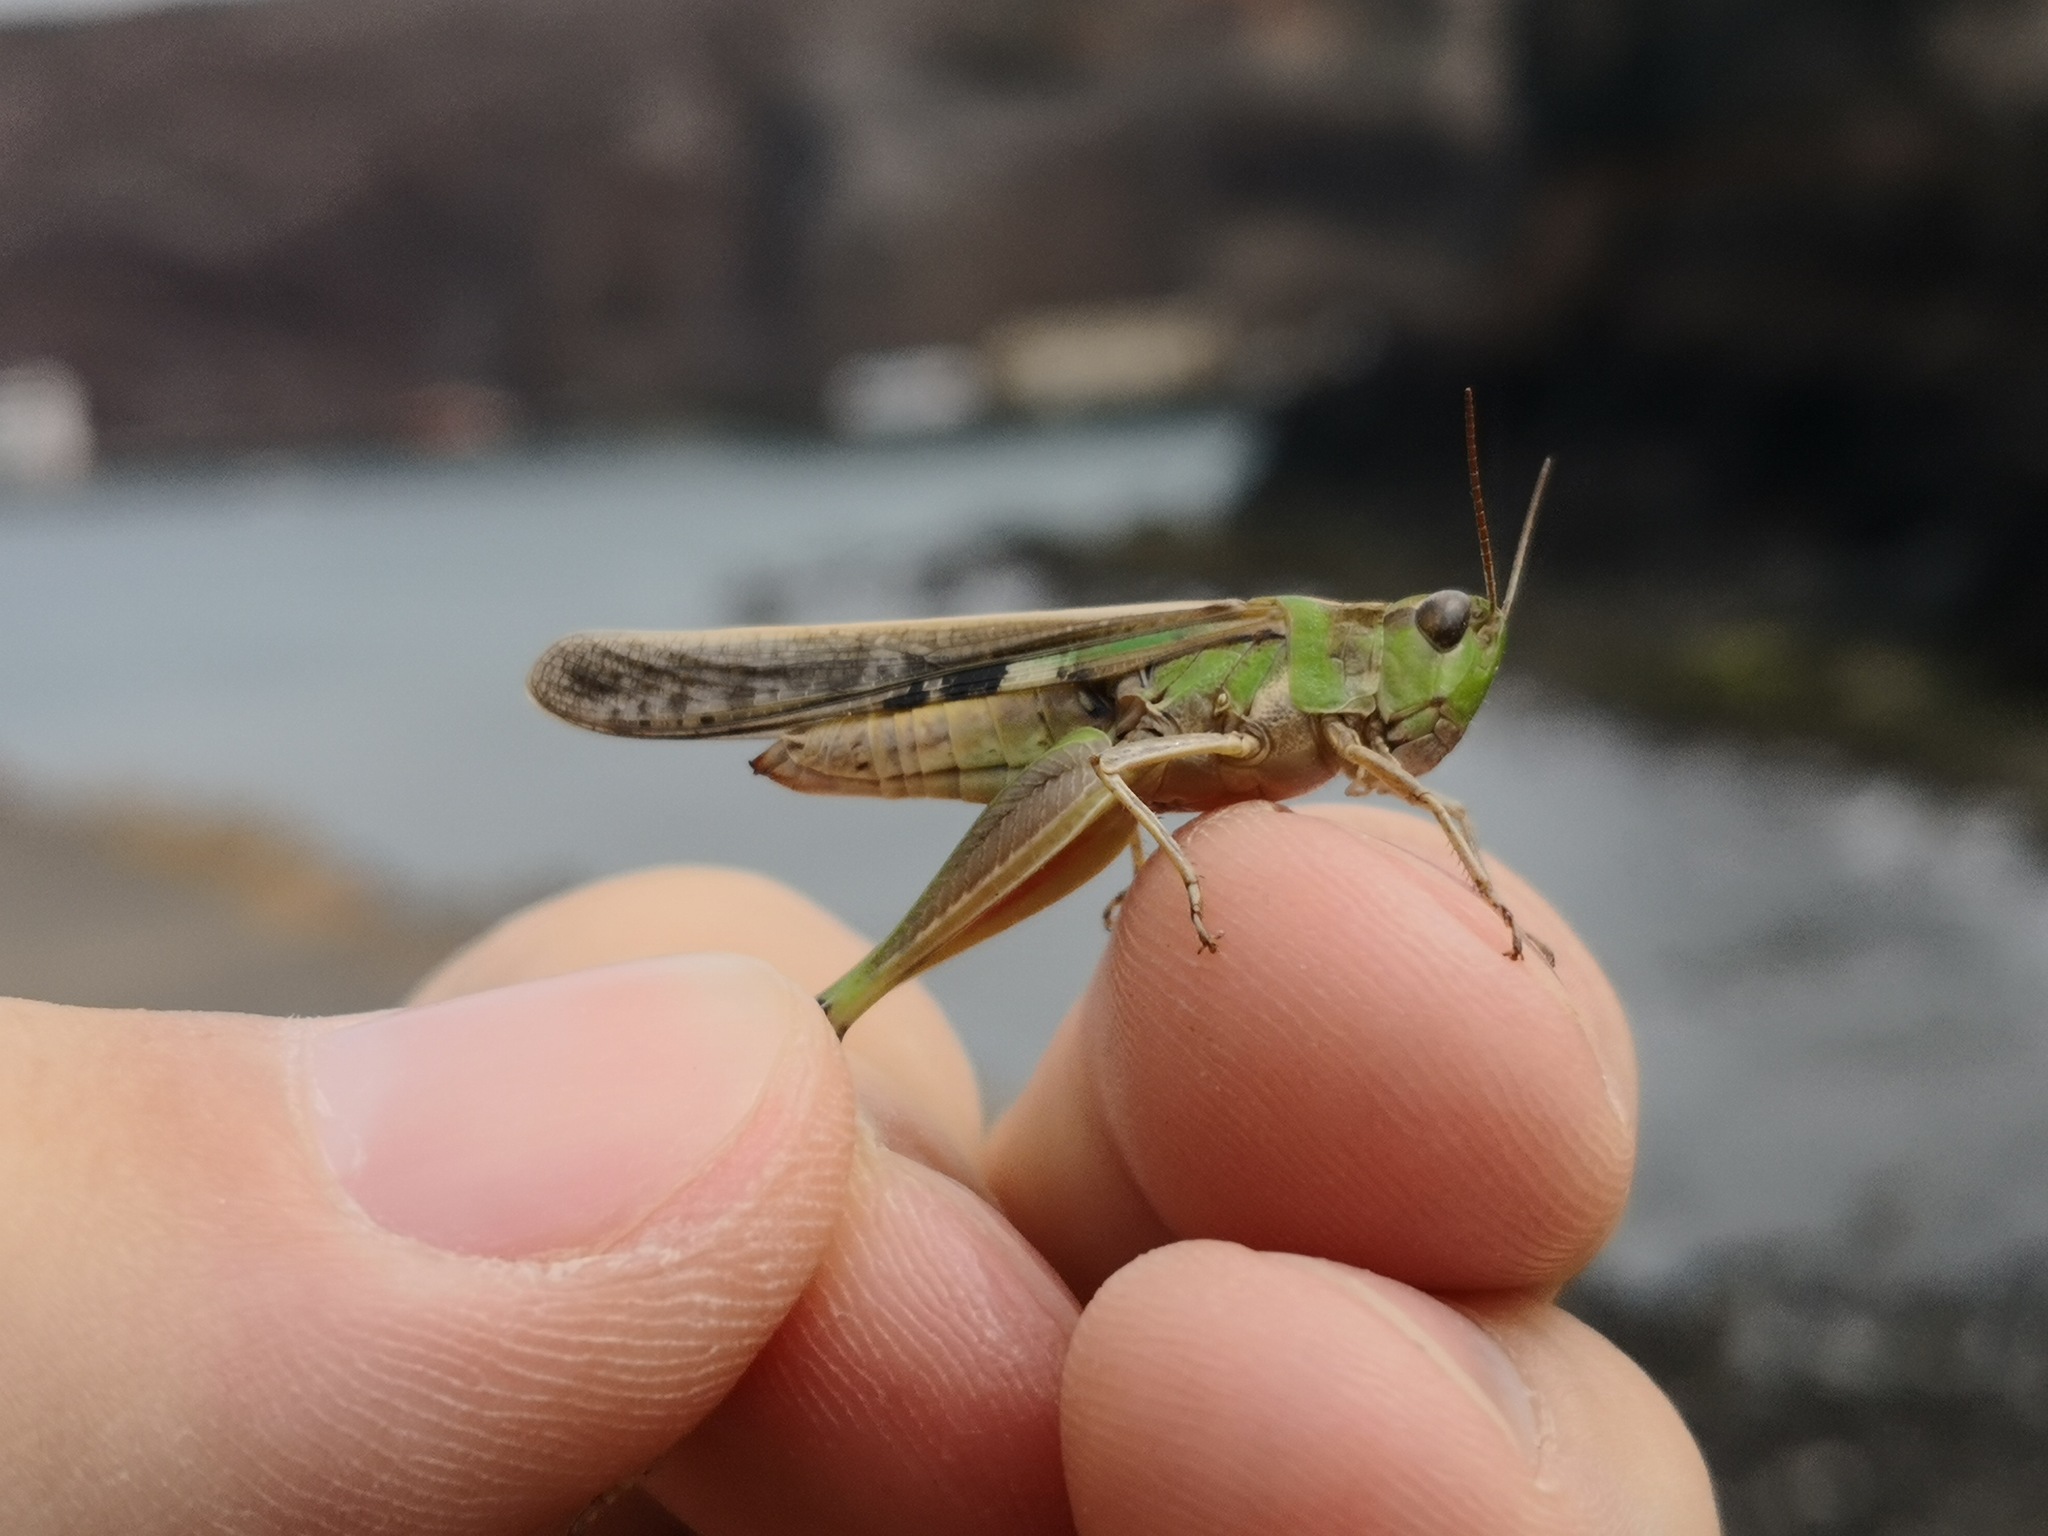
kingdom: Animalia
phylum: Arthropoda
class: Insecta
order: Orthoptera
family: Acrididae
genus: Aiolopus
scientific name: Aiolopus thalassinus
